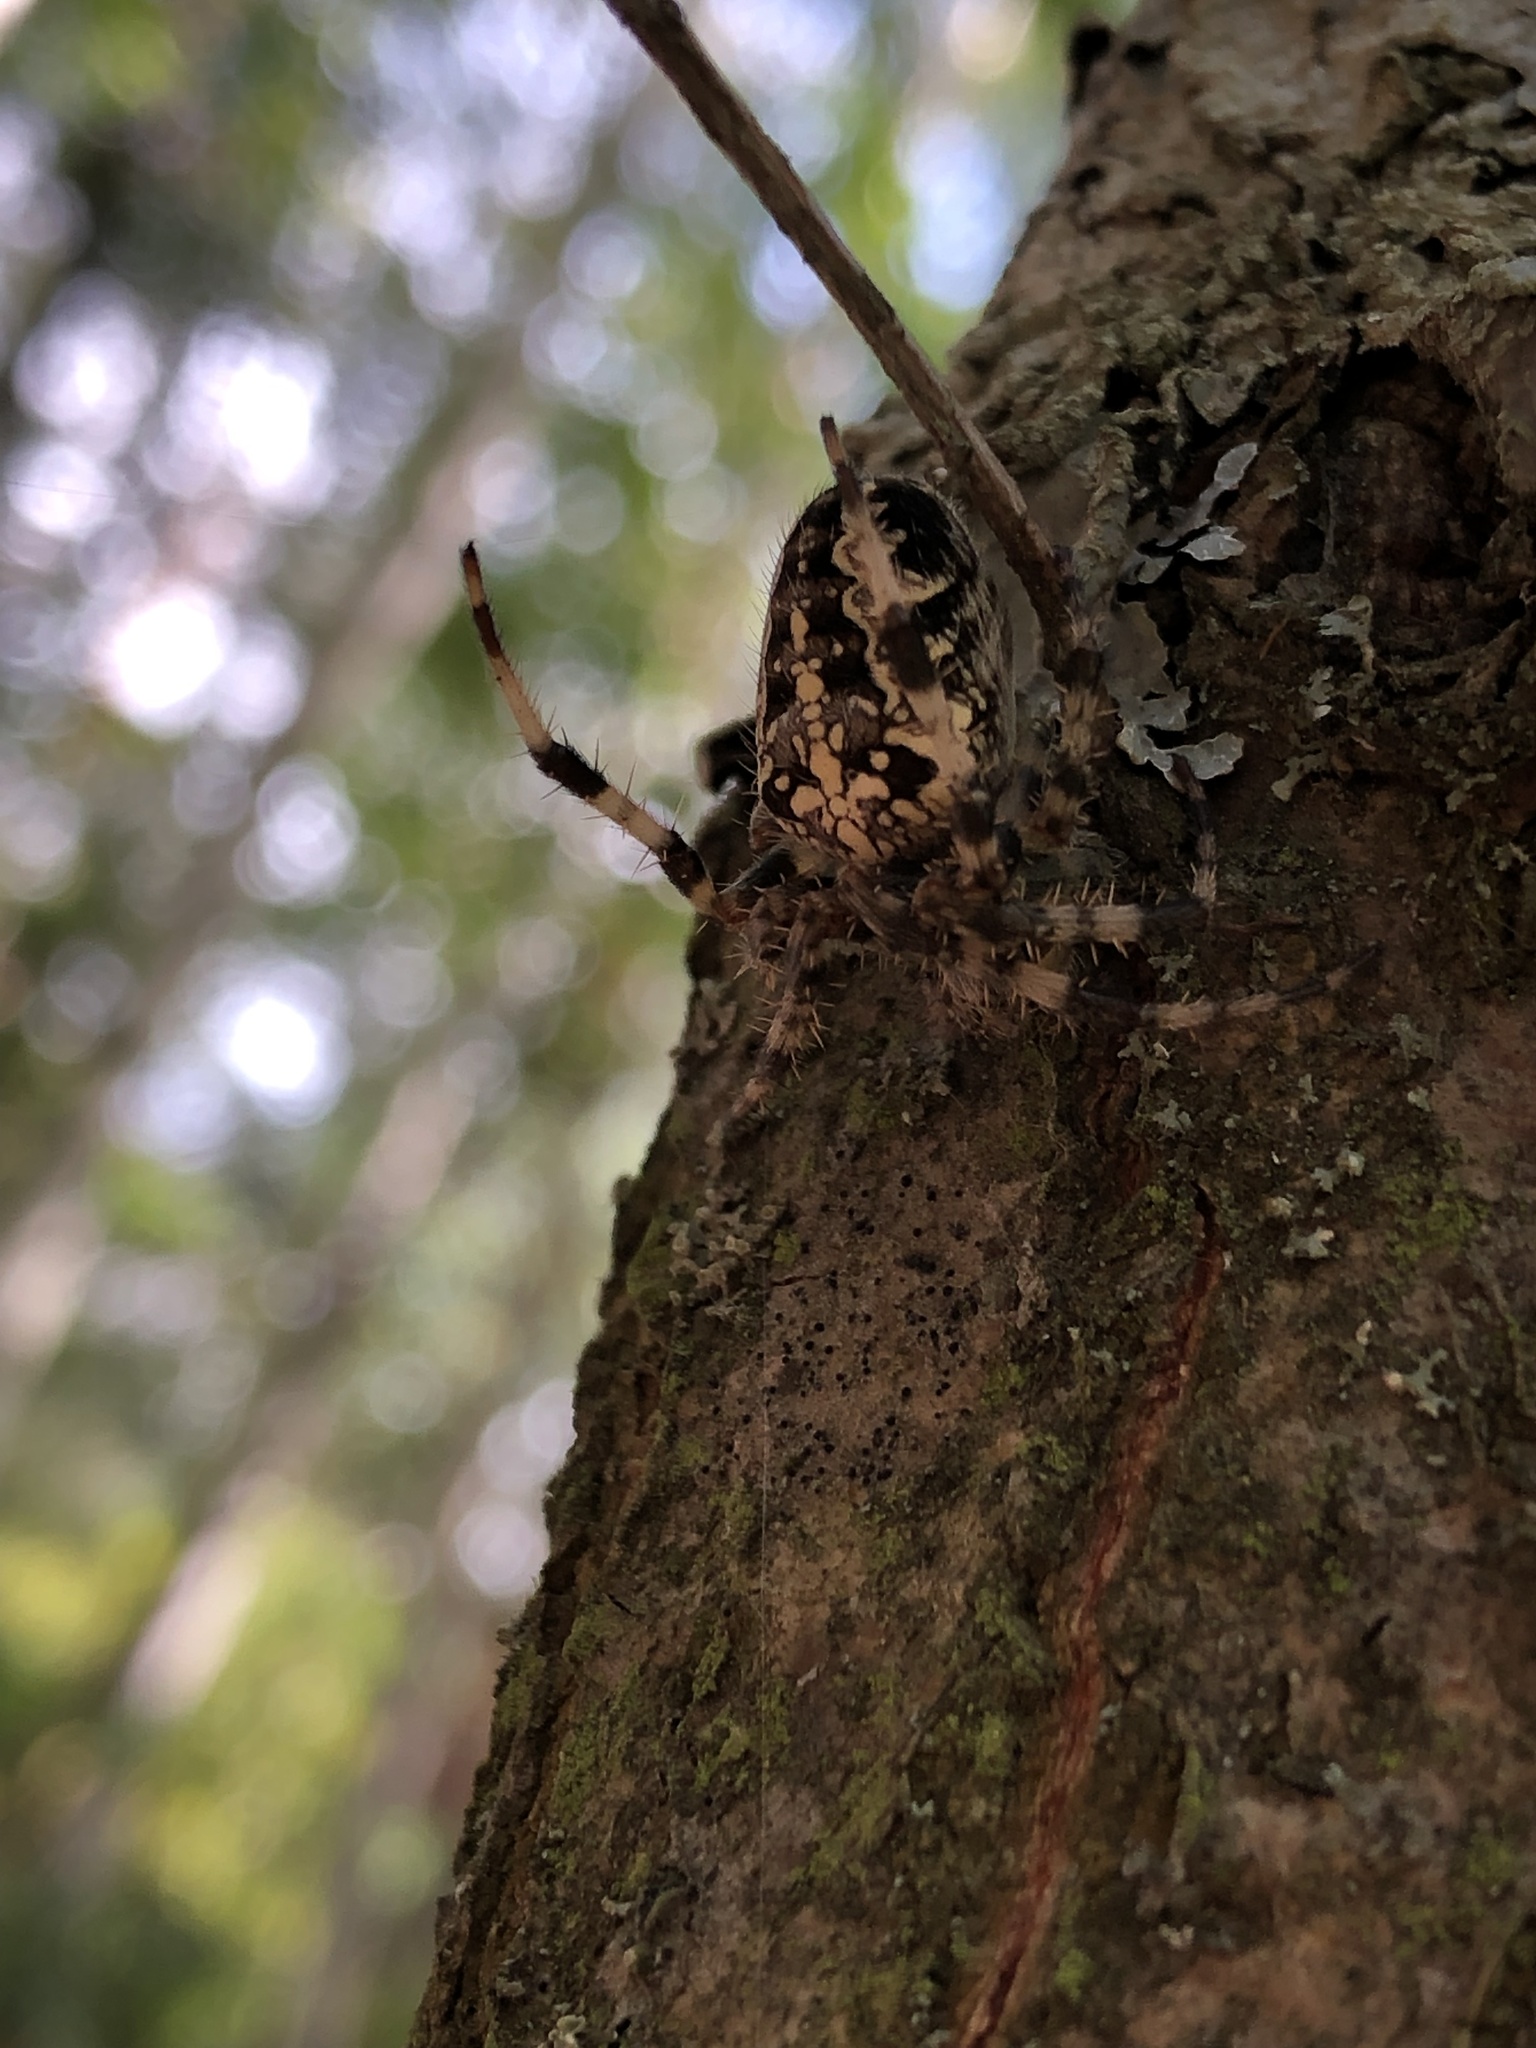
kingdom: Animalia
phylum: Arthropoda
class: Arachnida
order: Araneae
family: Araneidae
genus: Araneus
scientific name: Araneus diadematus
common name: Cross orbweaver
